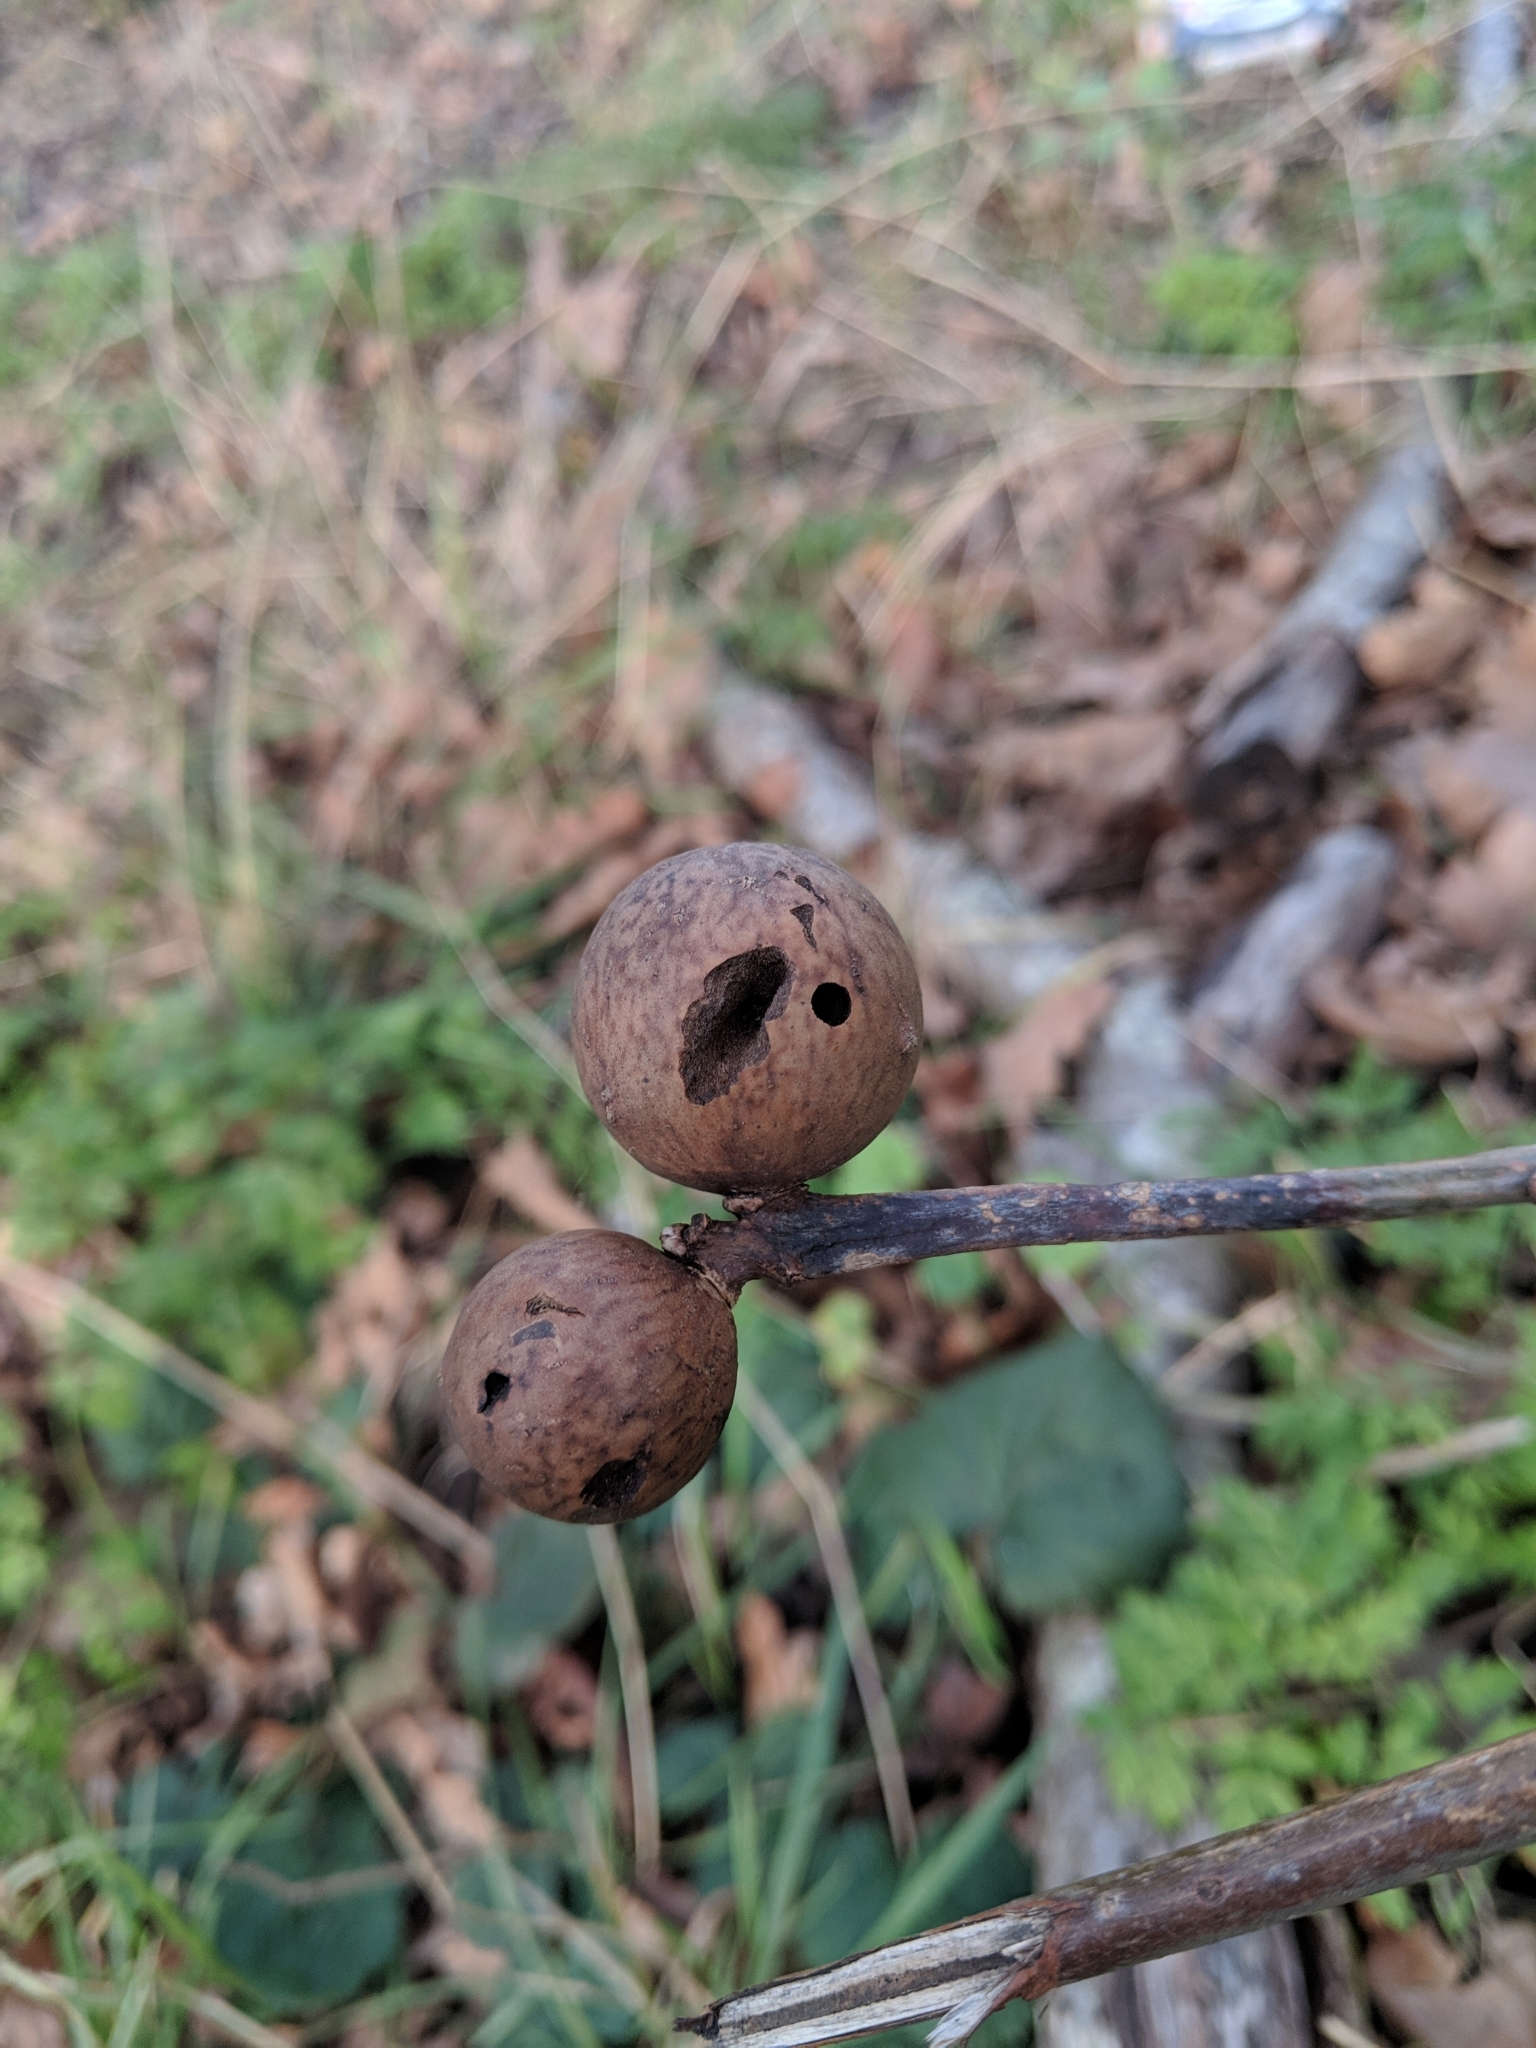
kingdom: Animalia
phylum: Arthropoda
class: Insecta
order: Hymenoptera
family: Cynipidae
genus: Andricus
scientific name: Andricus kollari
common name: Marble gall
